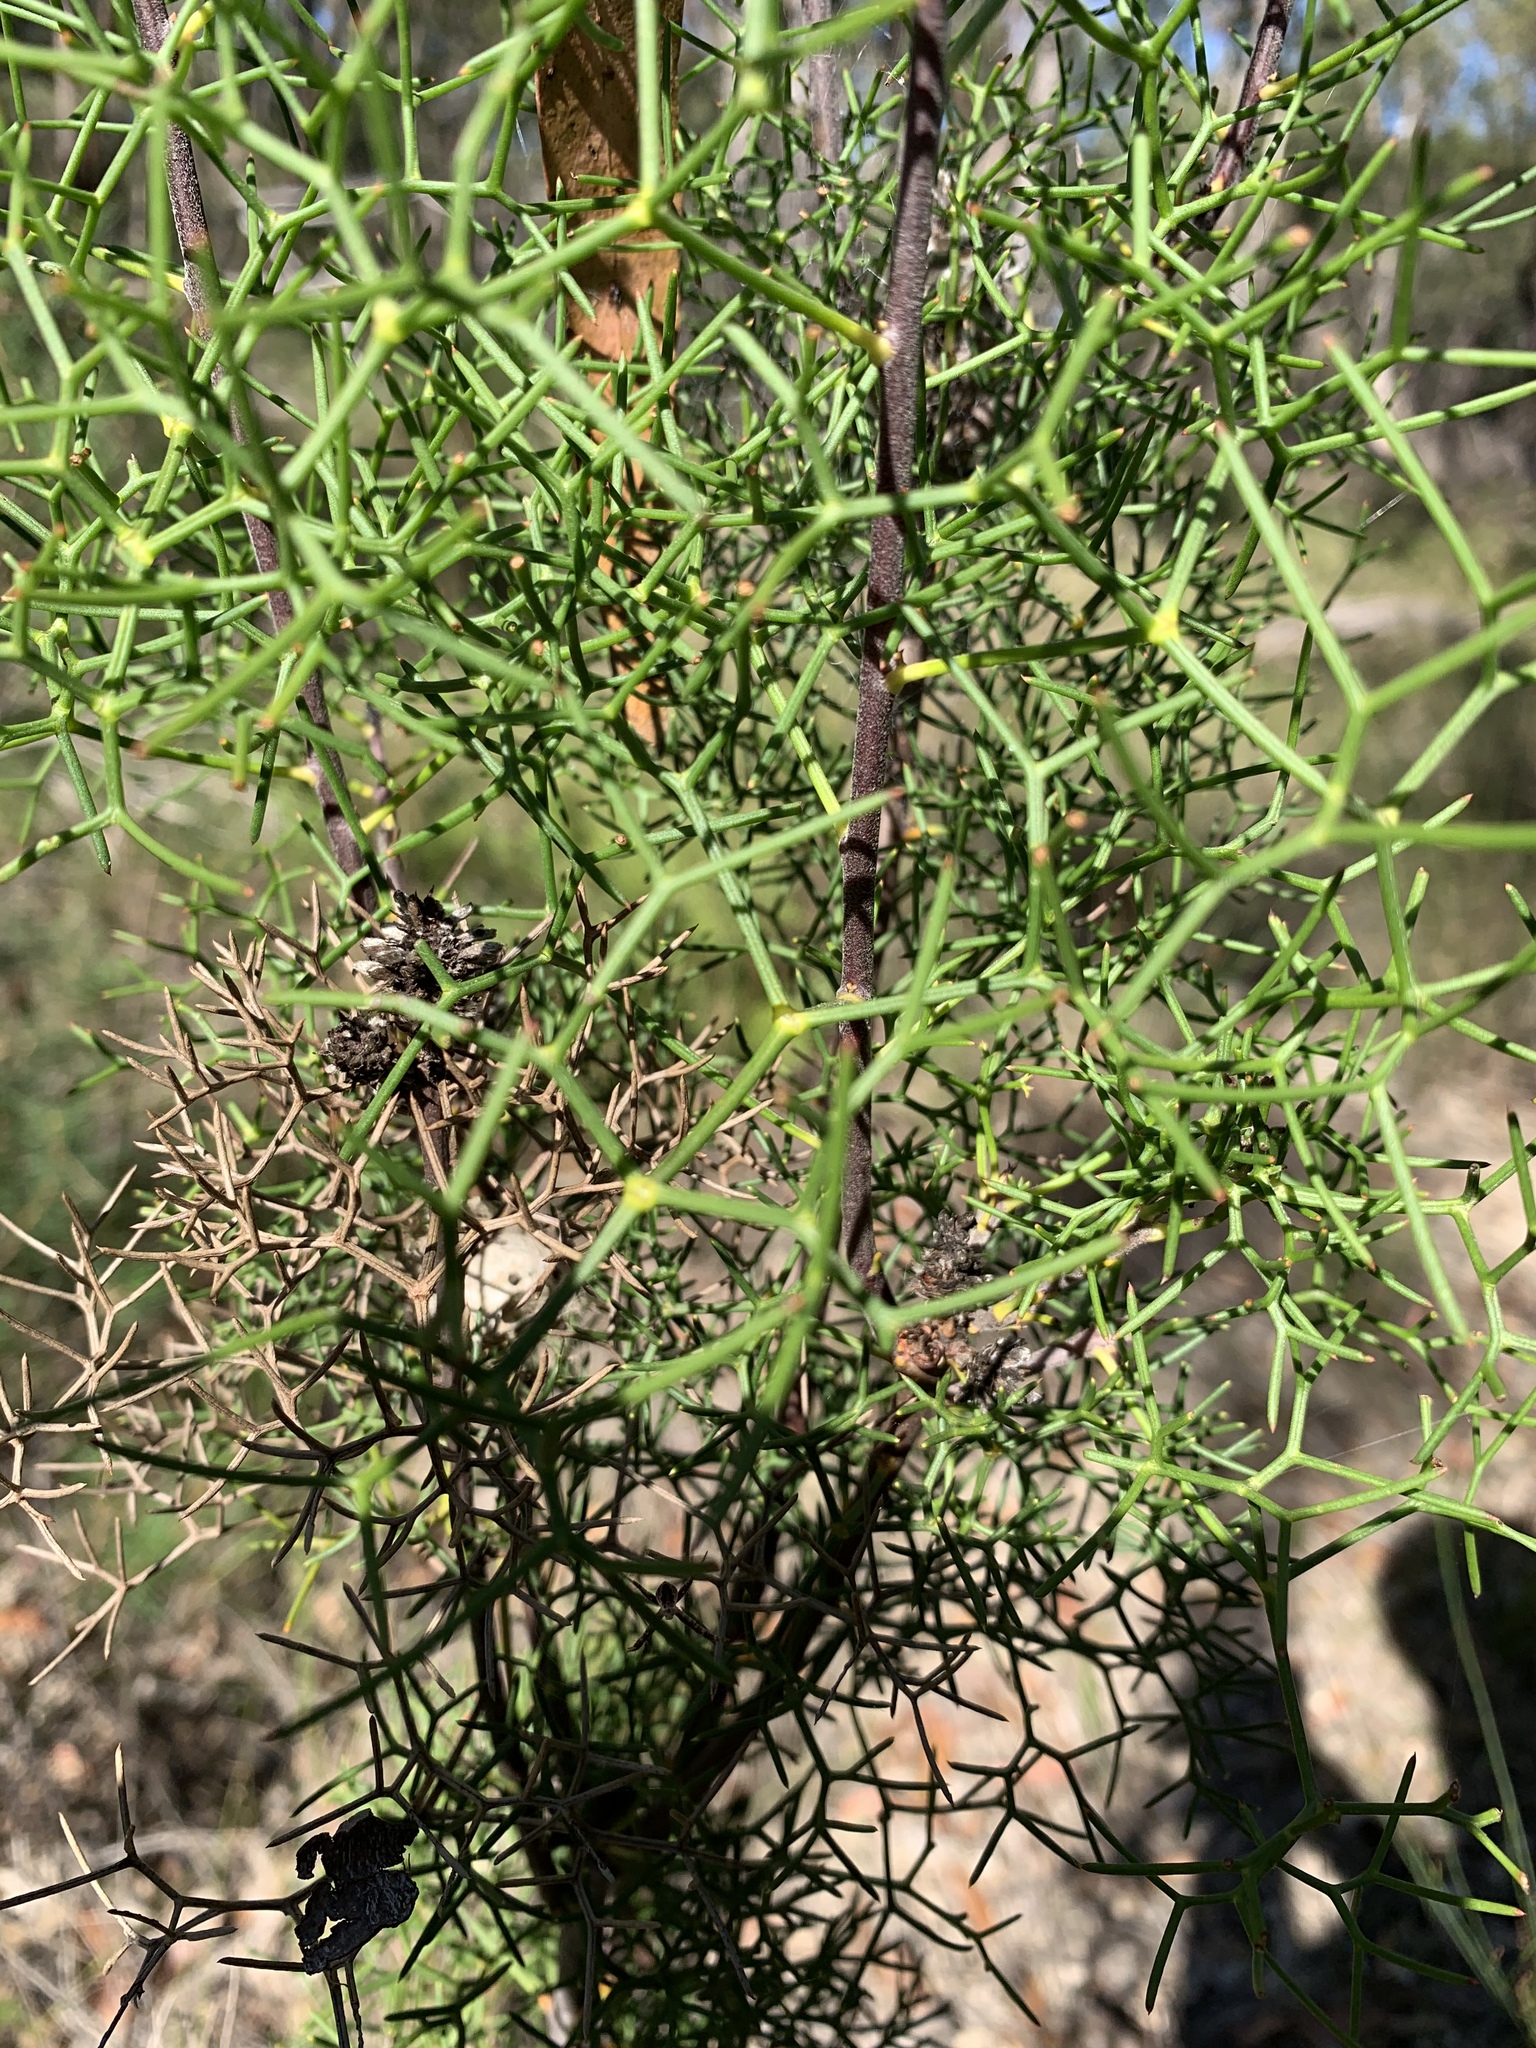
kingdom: Plantae
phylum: Tracheophyta
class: Magnoliopsida
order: Proteales
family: Proteaceae
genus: Petrophile
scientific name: Petrophile sessilis
